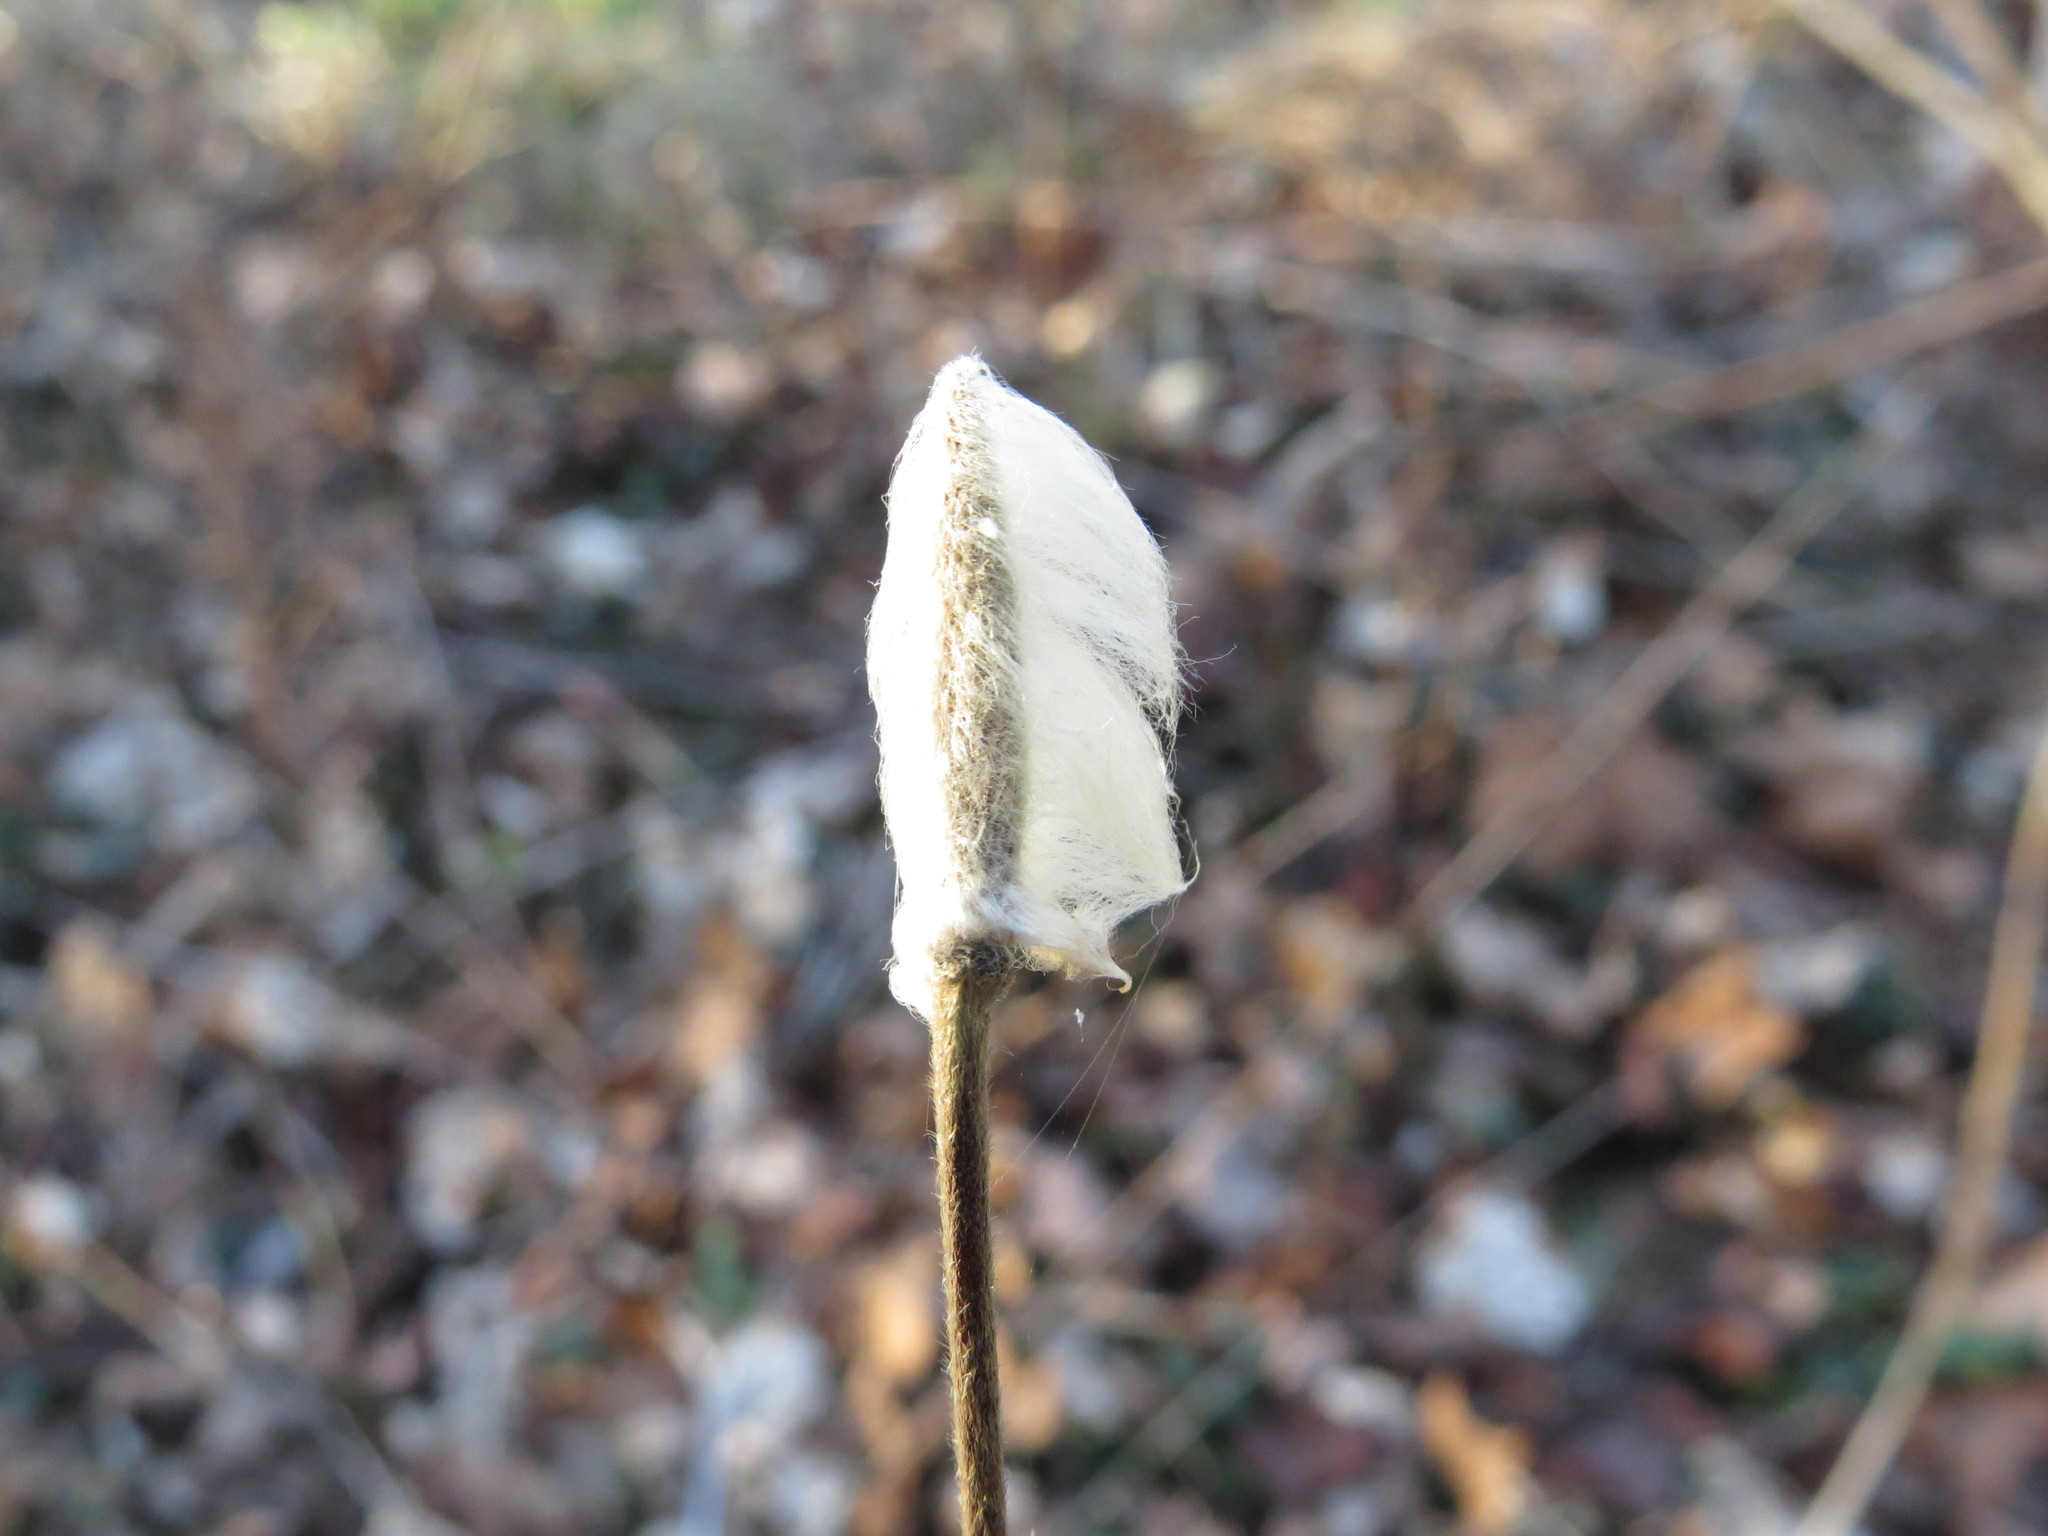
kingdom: Plantae
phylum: Tracheophyta
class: Magnoliopsida
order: Ranunculales
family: Ranunculaceae
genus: Anemone
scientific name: Anemone virginiana
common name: Tall anemone
